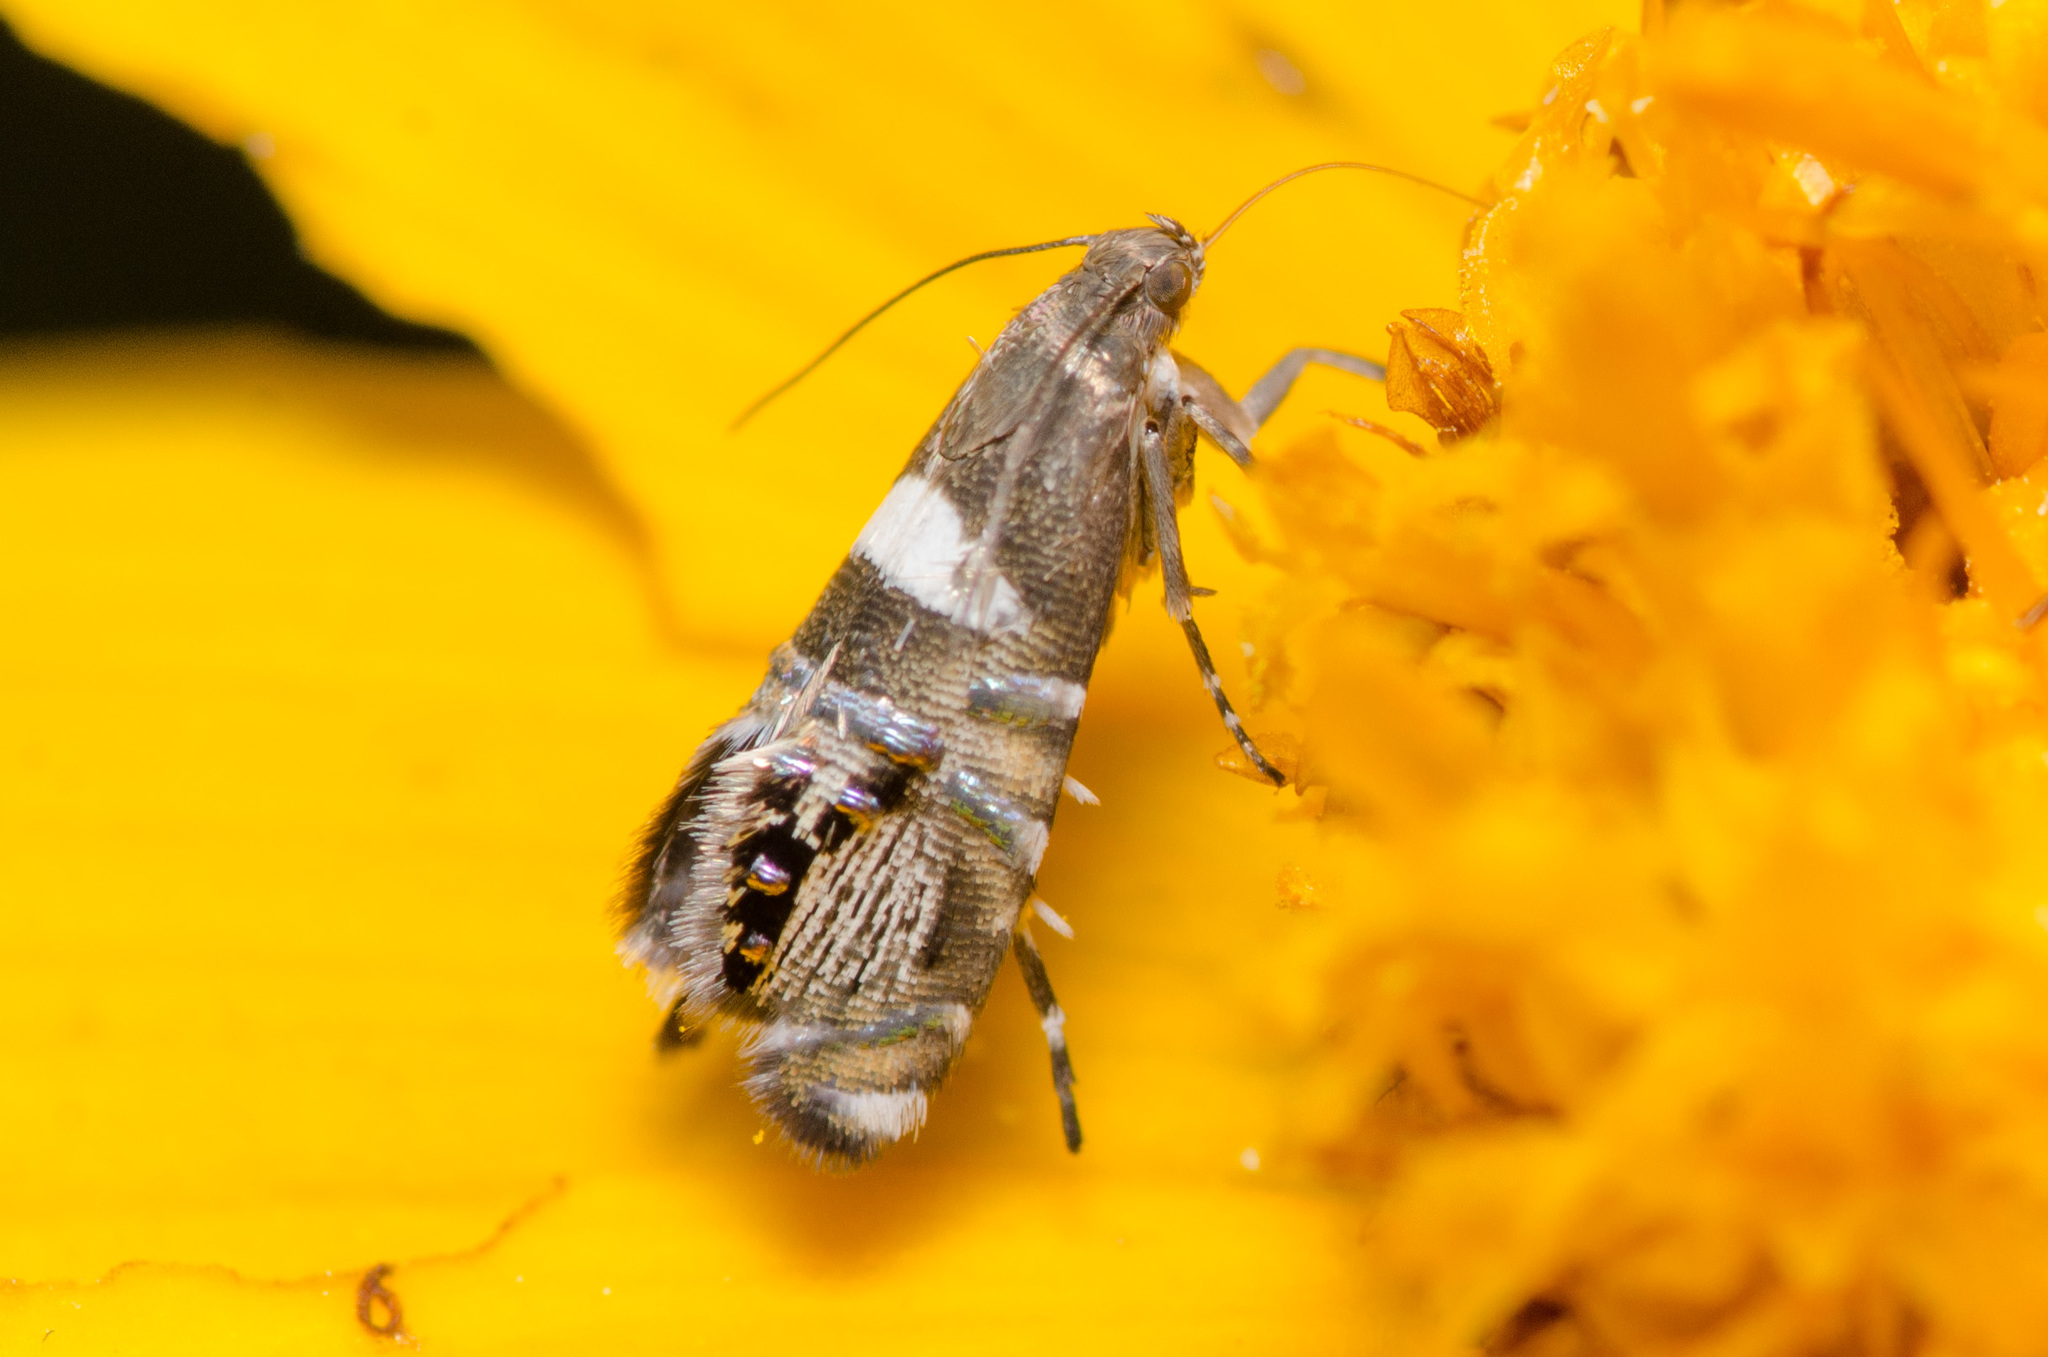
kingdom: Animalia
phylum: Arthropoda
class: Insecta
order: Lepidoptera
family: Glyphipterigidae
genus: Glyphipterix
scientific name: Glyphipterix circumscriptella
